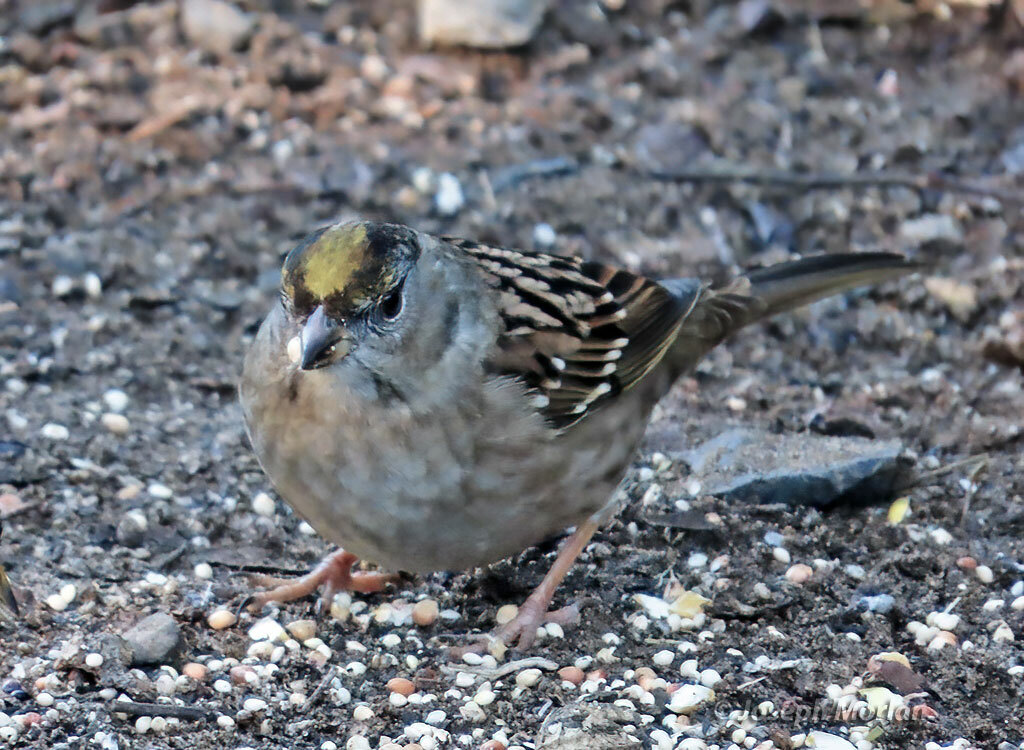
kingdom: Animalia
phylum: Chordata
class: Aves
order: Passeriformes
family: Passerellidae
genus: Zonotrichia
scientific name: Zonotrichia atricapilla
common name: Golden-crowned sparrow
